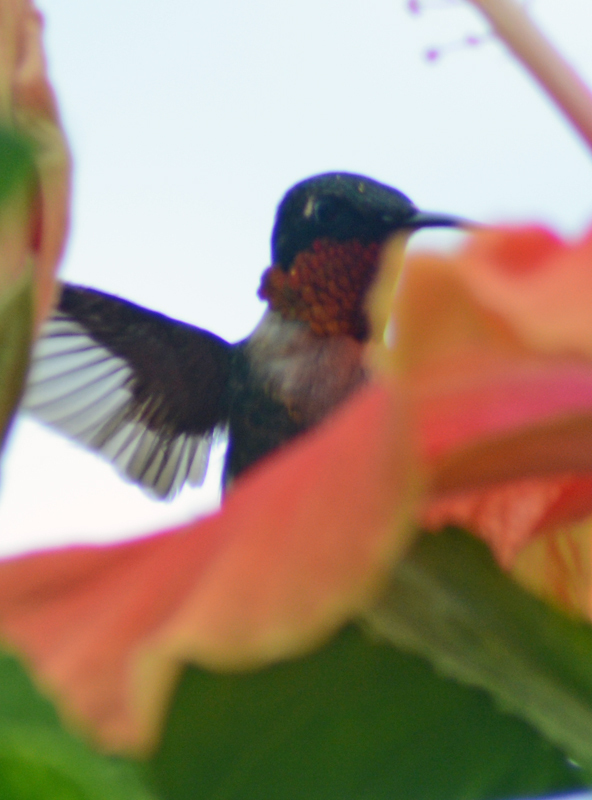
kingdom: Animalia
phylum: Chordata
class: Aves
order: Apodiformes
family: Trochilidae
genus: Archilochus
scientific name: Archilochus colubris
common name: Ruby-throated hummingbird
